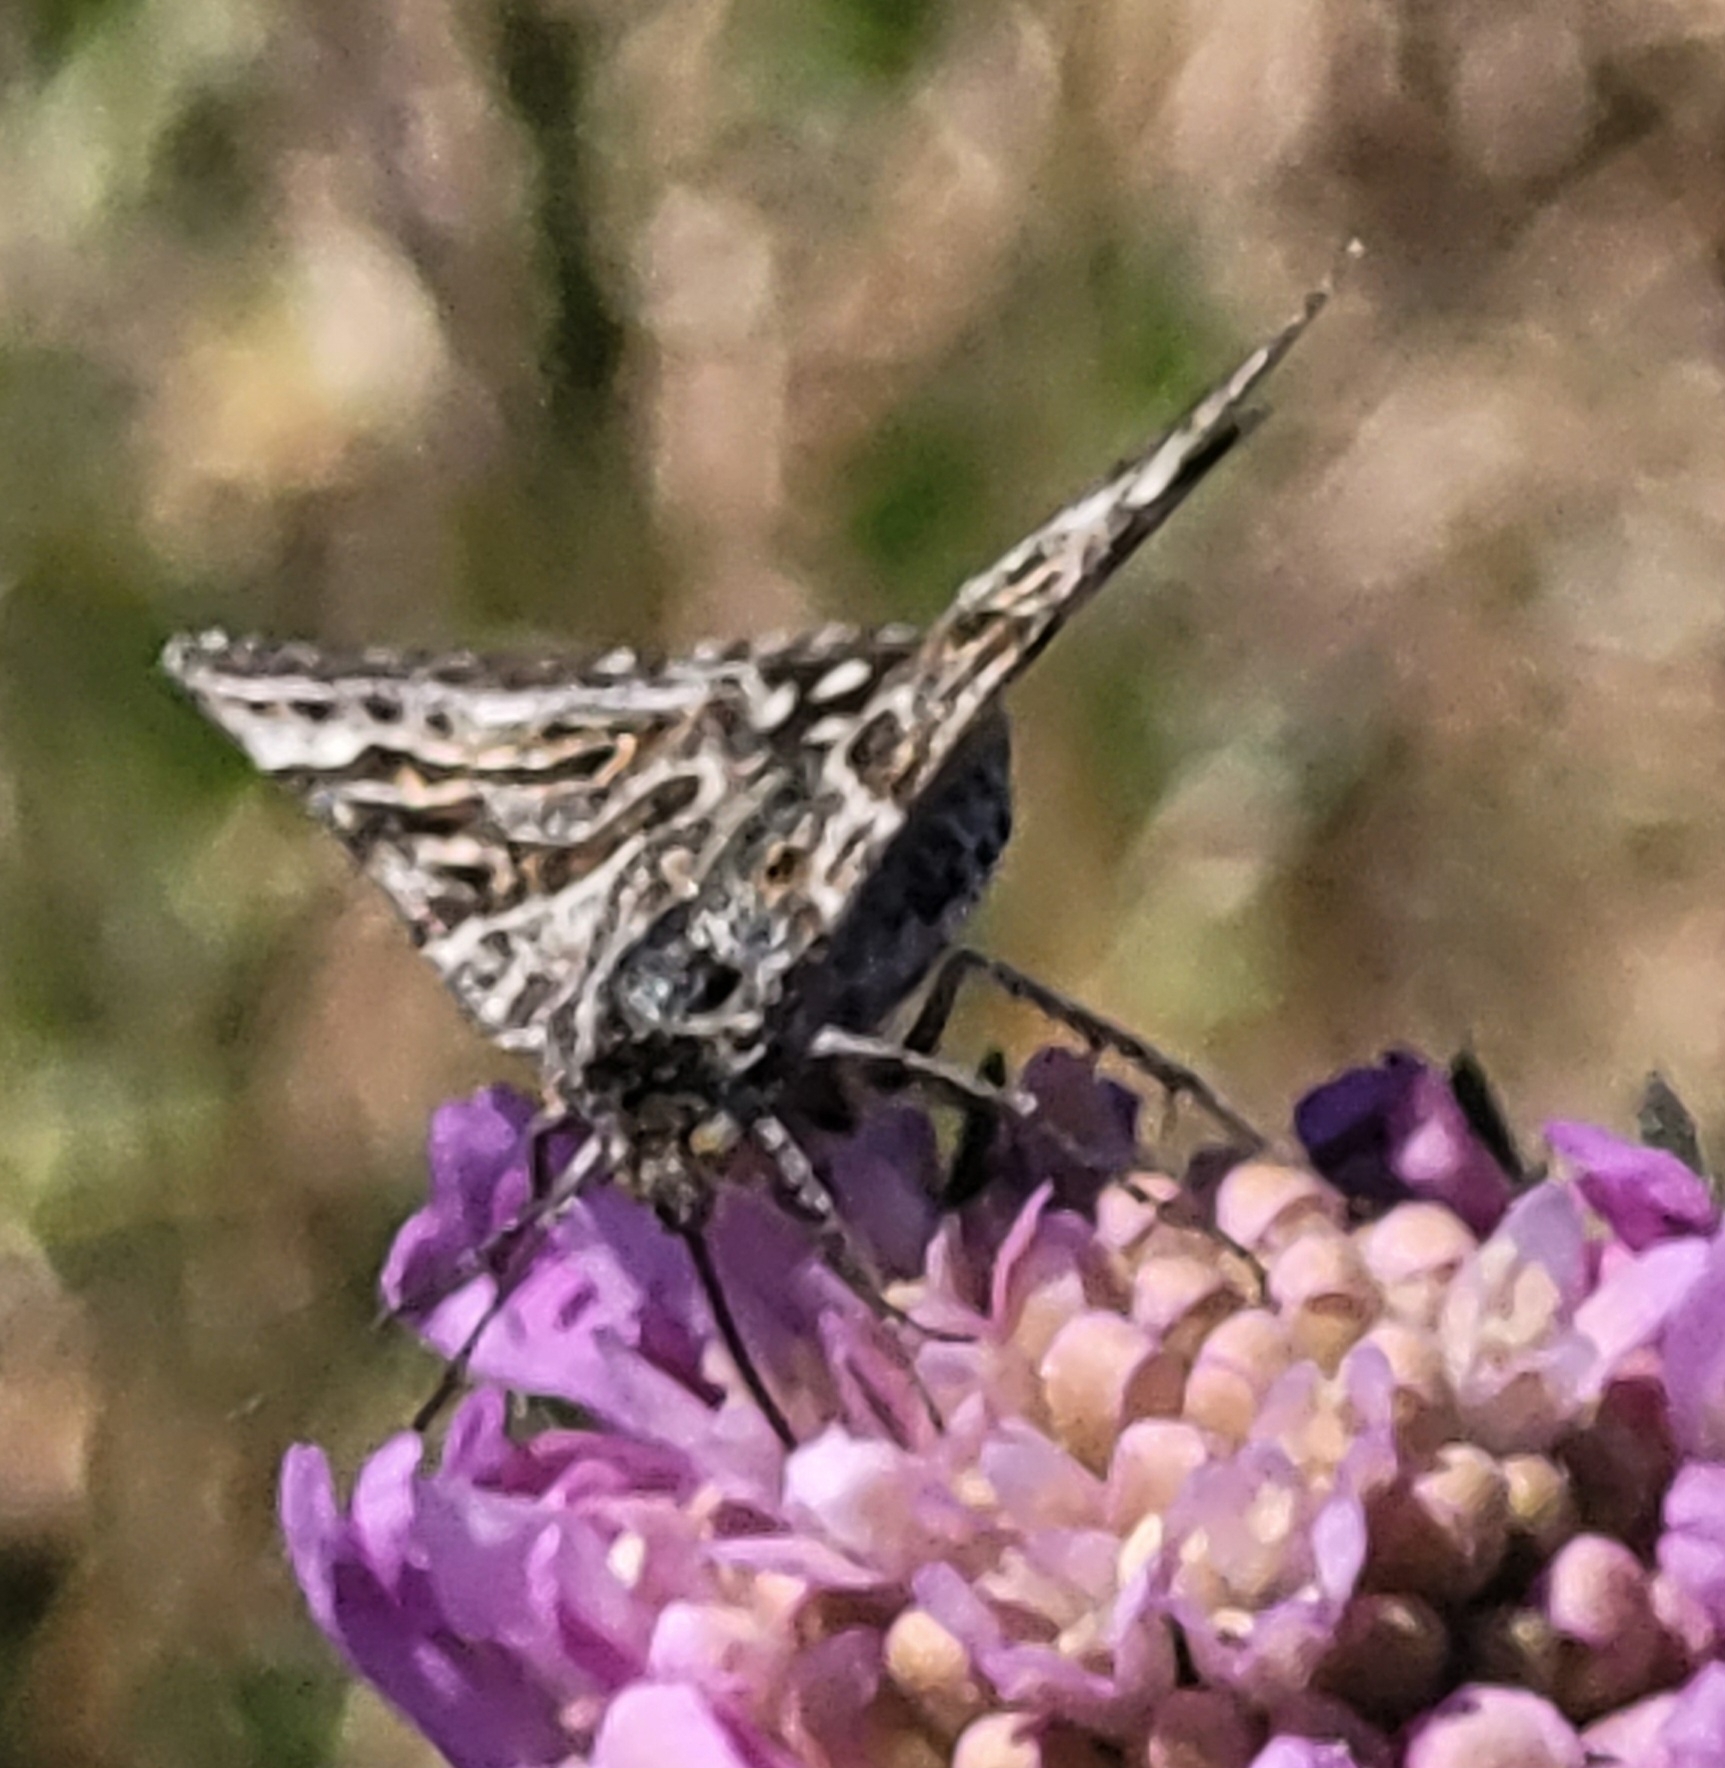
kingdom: Animalia
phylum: Arthropoda
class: Insecta
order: Lepidoptera
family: Erebidae
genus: Callistege
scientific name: Callistege mi
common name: Mother shipton
